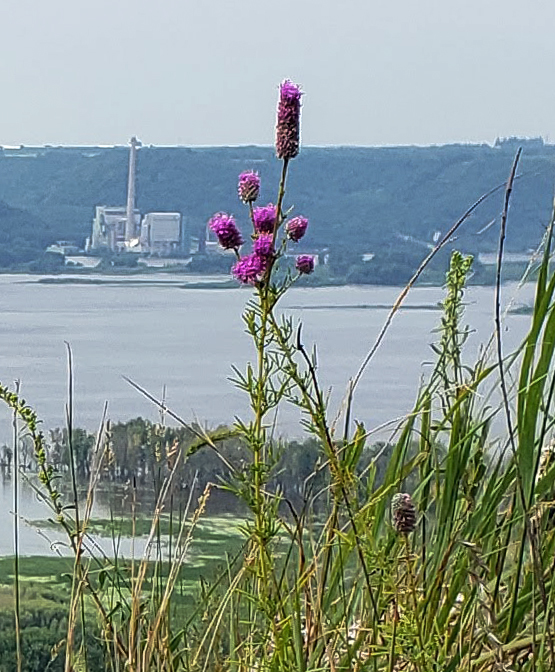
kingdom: Plantae
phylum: Tracheophyta
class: Magnoliopsida
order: Fabales
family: Fabaceae
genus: Dalea
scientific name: Dalea purpurea
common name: Purple prairie-clover
